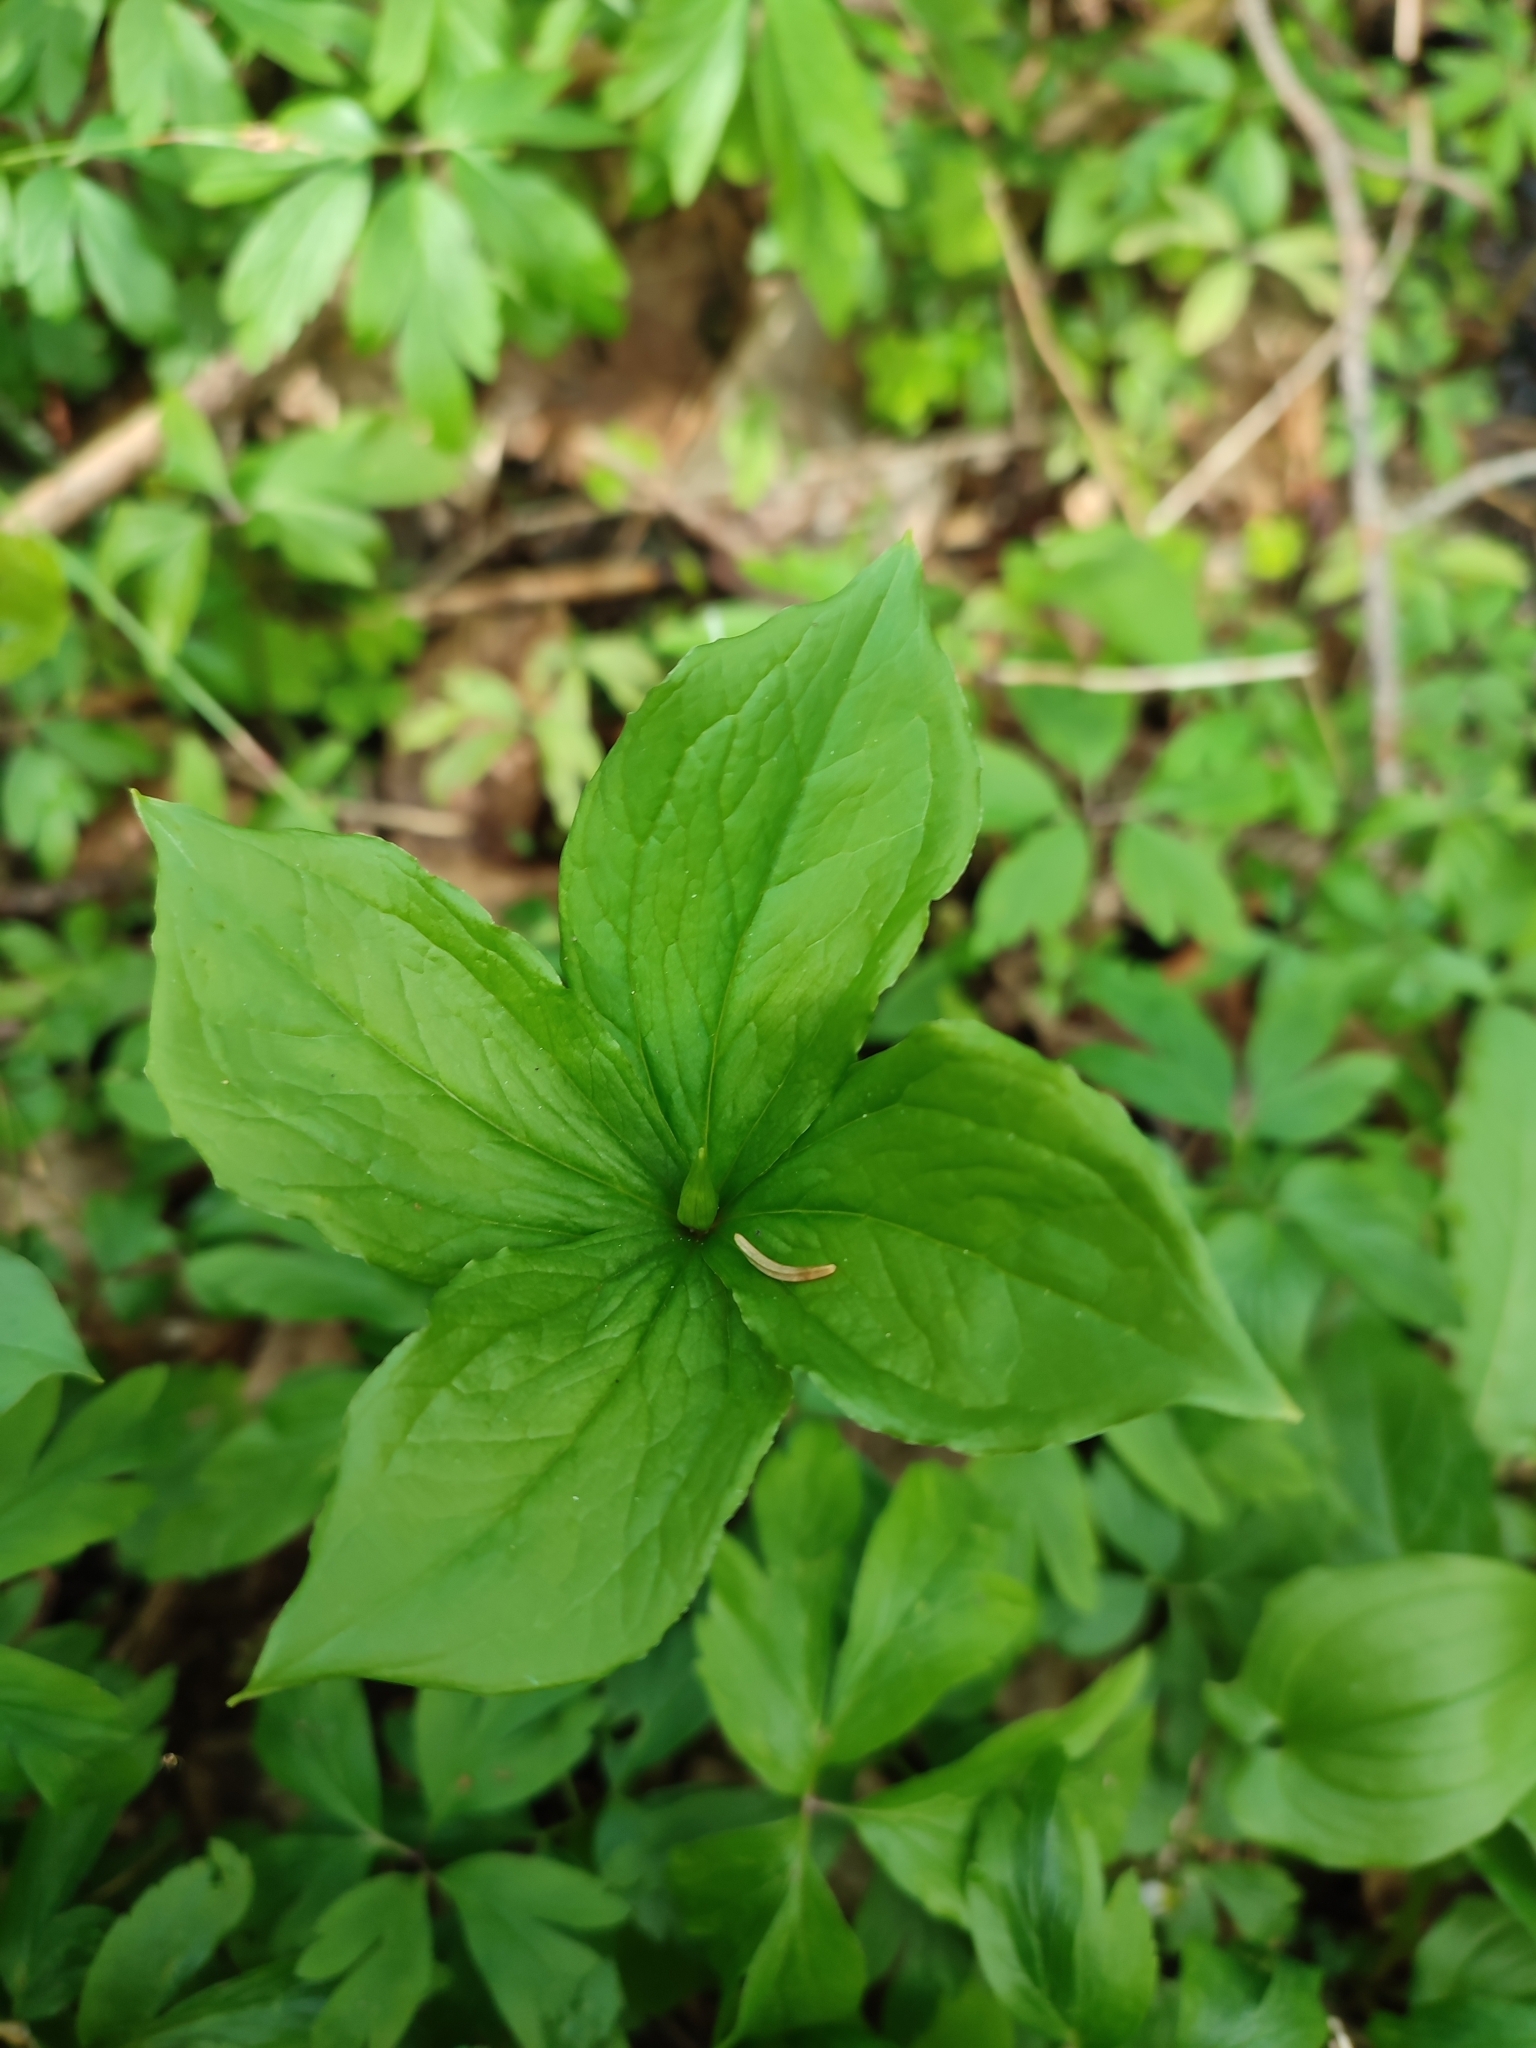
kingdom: Plantae
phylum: Tracheophyta
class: Liliopsida
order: Liliales
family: Melanthiaceae
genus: Paris
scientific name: Paris quadrifolia
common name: Herb-paris
